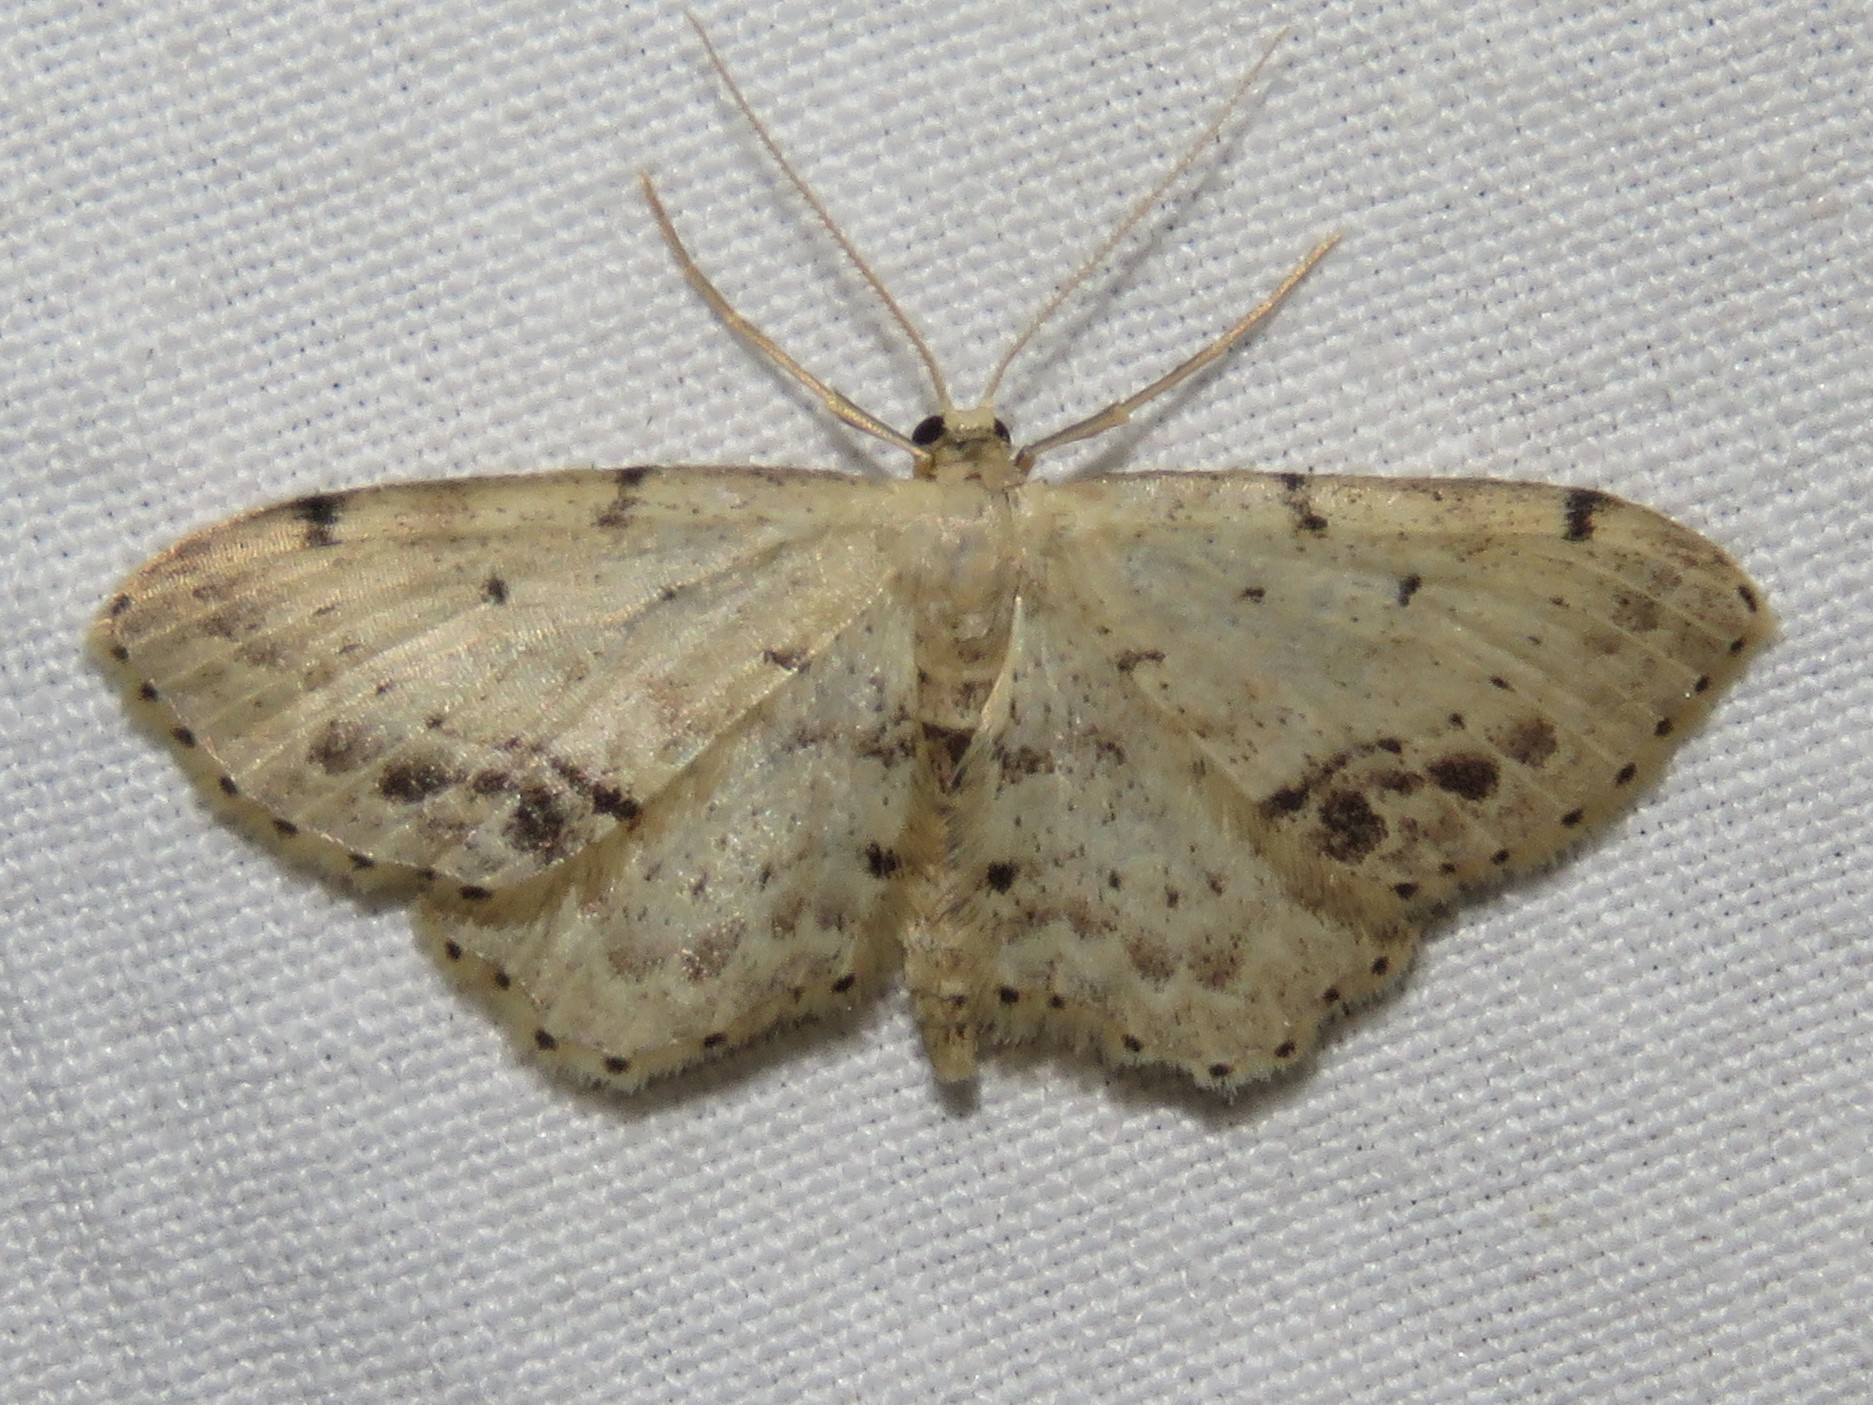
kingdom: Animalia
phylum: Arthropoda
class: Insecta
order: Lepidoptera
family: Geometridae
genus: Idaea
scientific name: Idaea dimidiata
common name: Single-dotted wave
